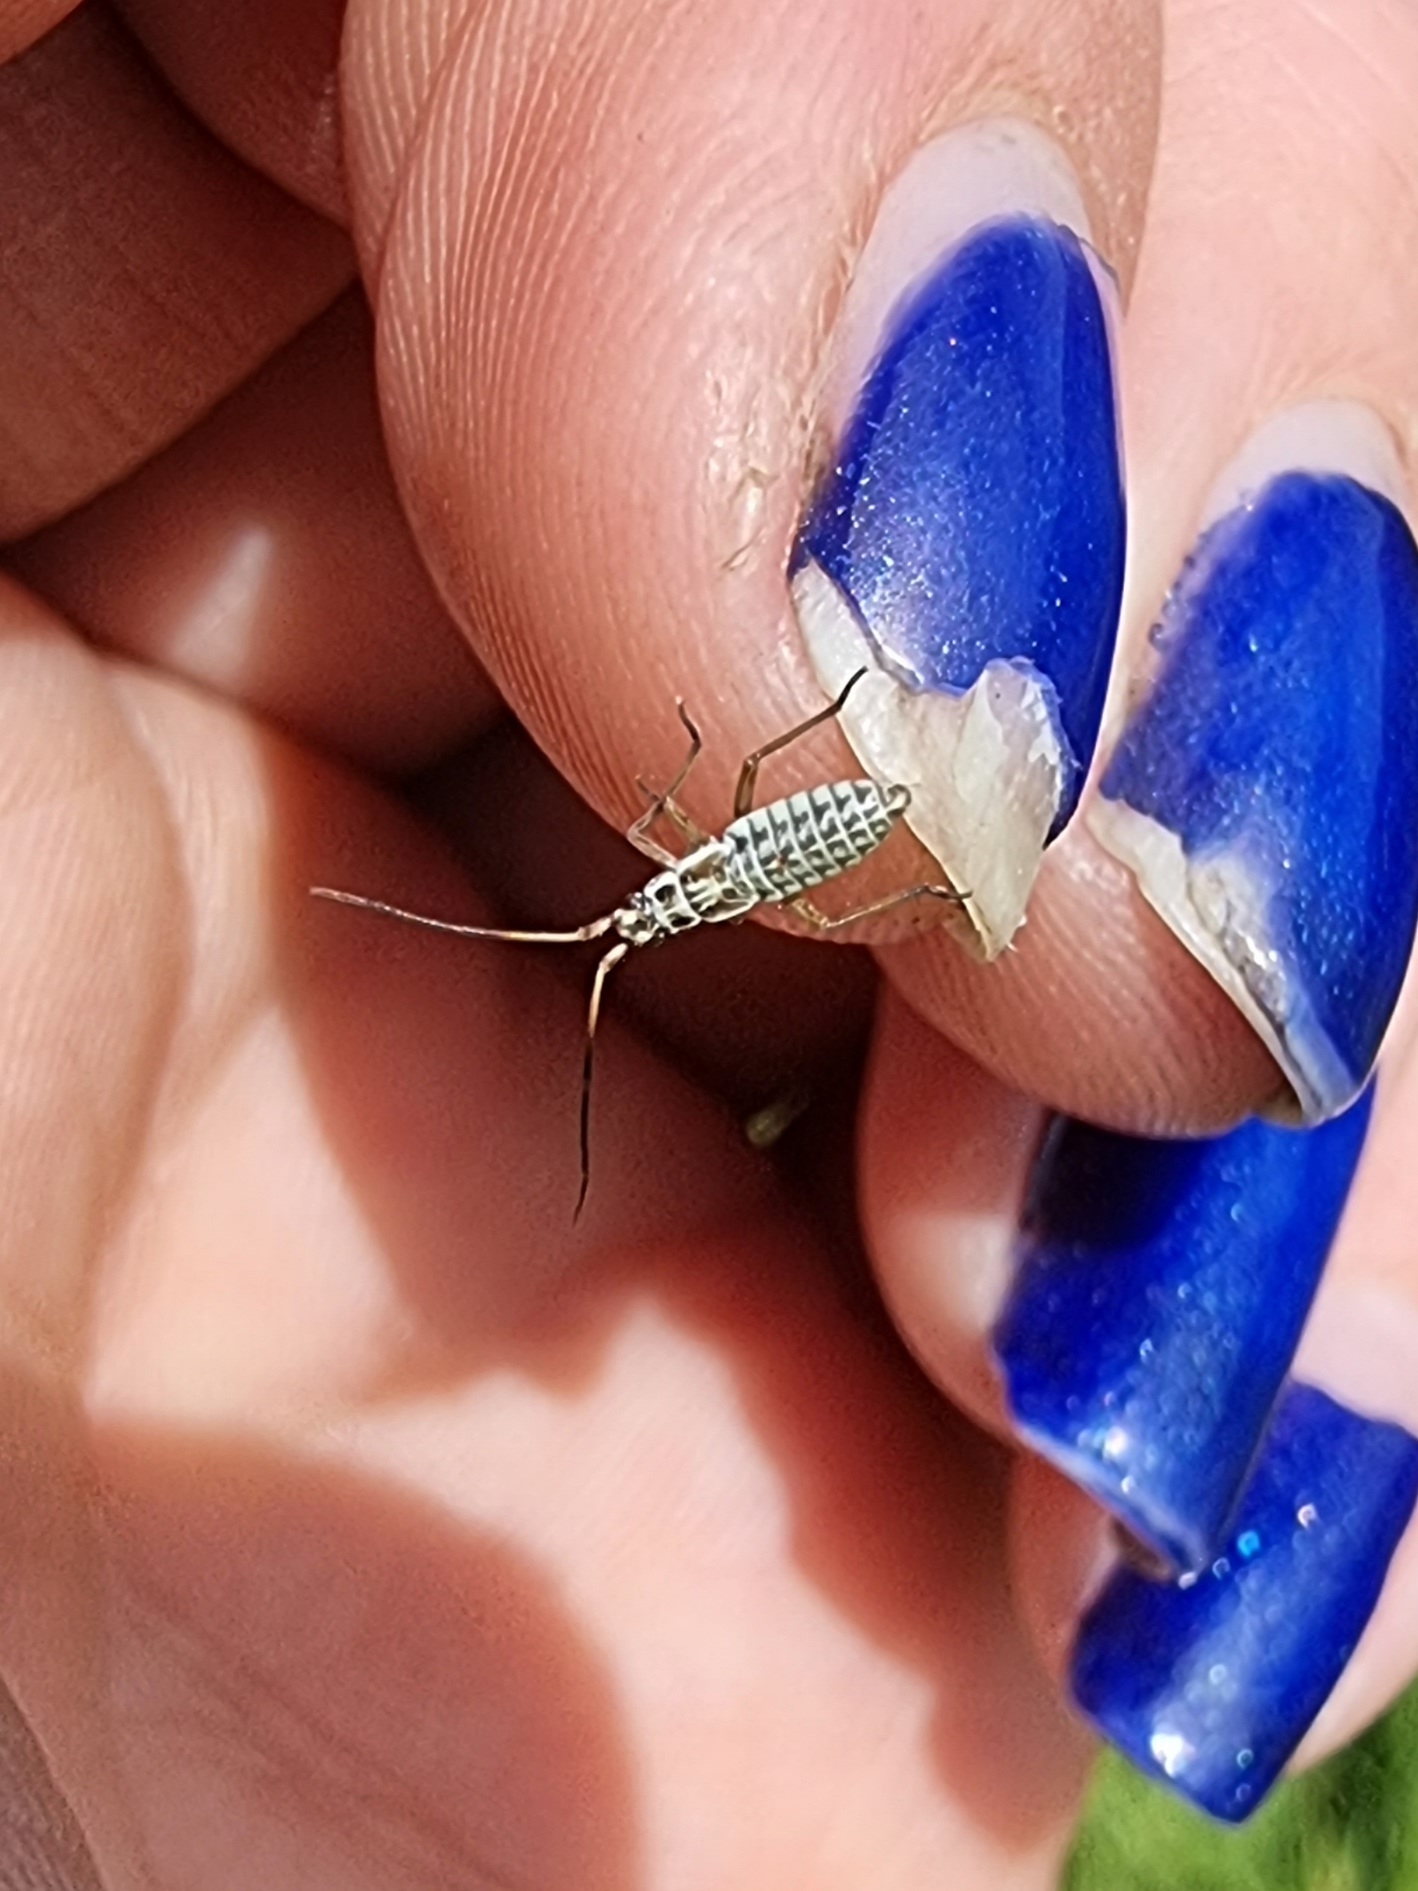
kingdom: Animalia
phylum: Arthropoda
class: Insecta
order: Hemiptera
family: Miridae
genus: Leptopterna
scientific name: Leptopterna dolabrata
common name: Meadow plant bug
